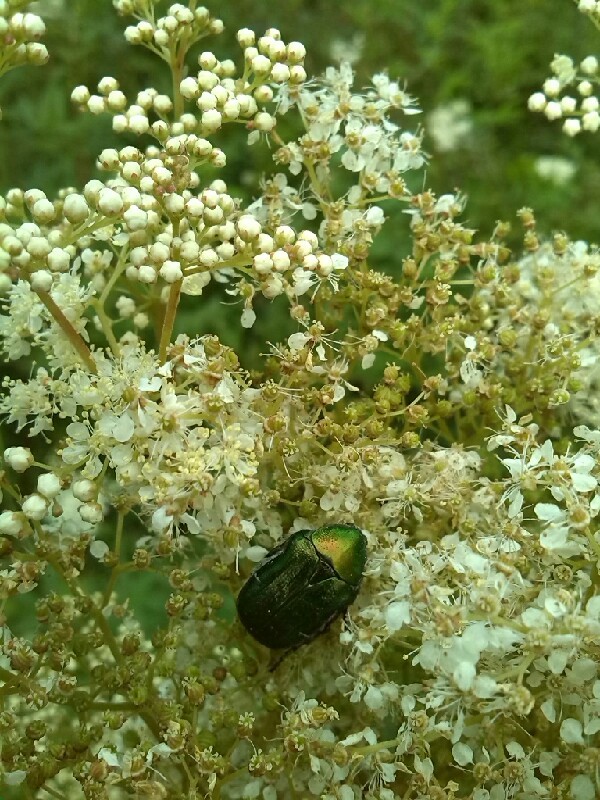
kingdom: Plantae
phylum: Tracheophyta
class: Magnoliopsida
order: Rosales
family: Rosaceae
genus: Filipendula
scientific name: Filipendula ulmaria
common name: Meadowsweet
